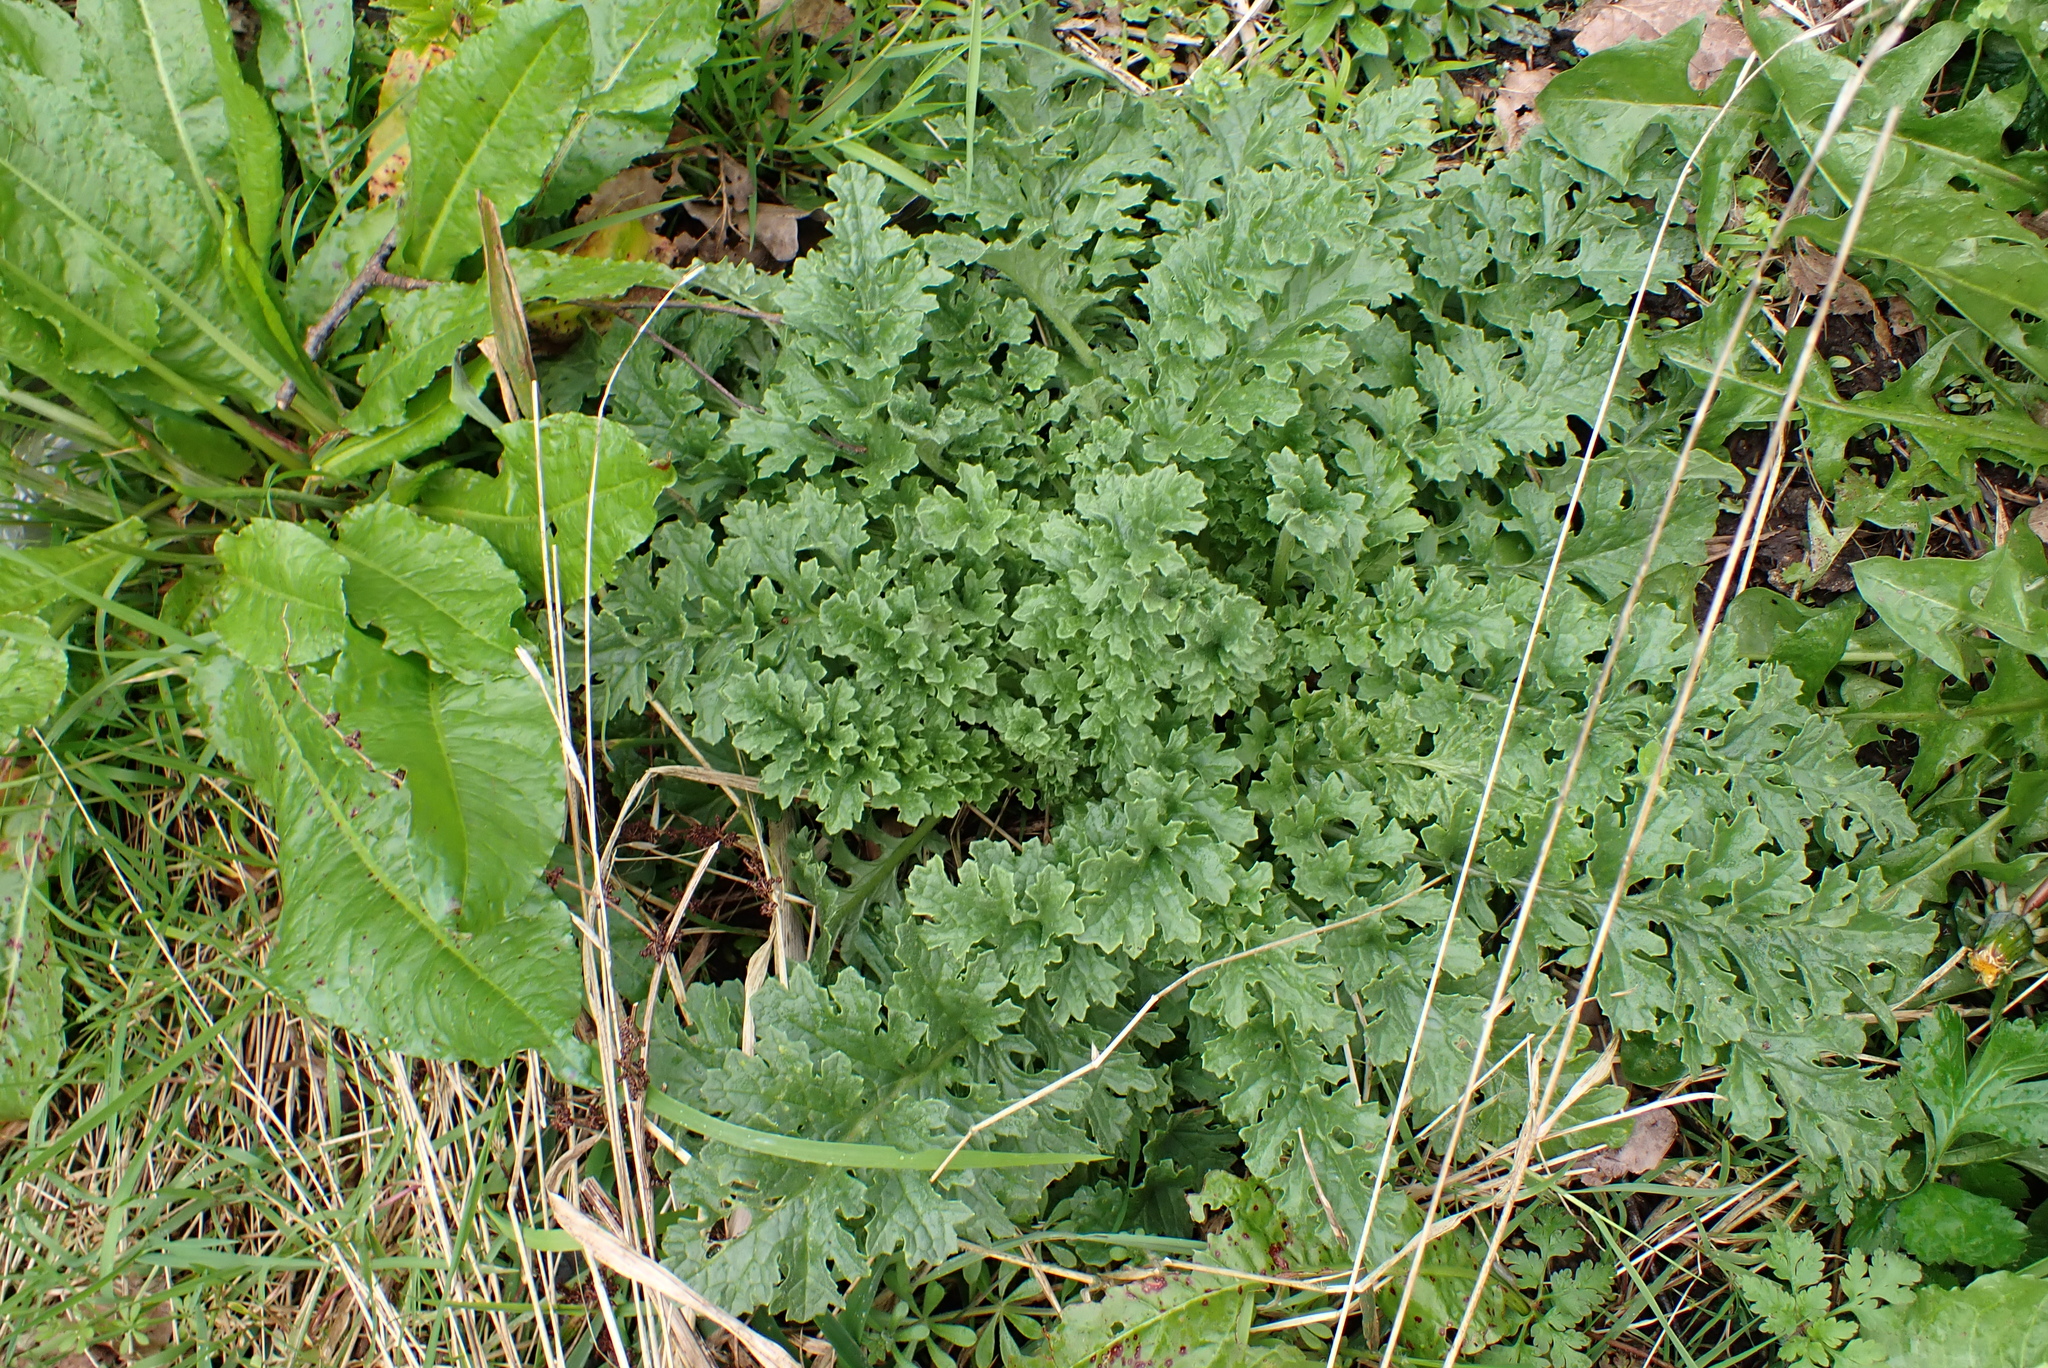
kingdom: Plantae
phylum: Tracheophyta
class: Magnoliopsida
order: Asterales
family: Asteraceae
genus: Jacobaea
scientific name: Jacobaea vulgaris
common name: Stinking willie
